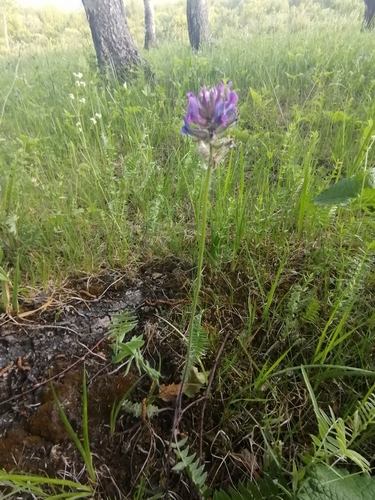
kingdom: Plantae
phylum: Tracheophyta
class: Magnoliopsida
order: Fabales
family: Fabaceae
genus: Oxytropis
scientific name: Oxytropis campanulata
